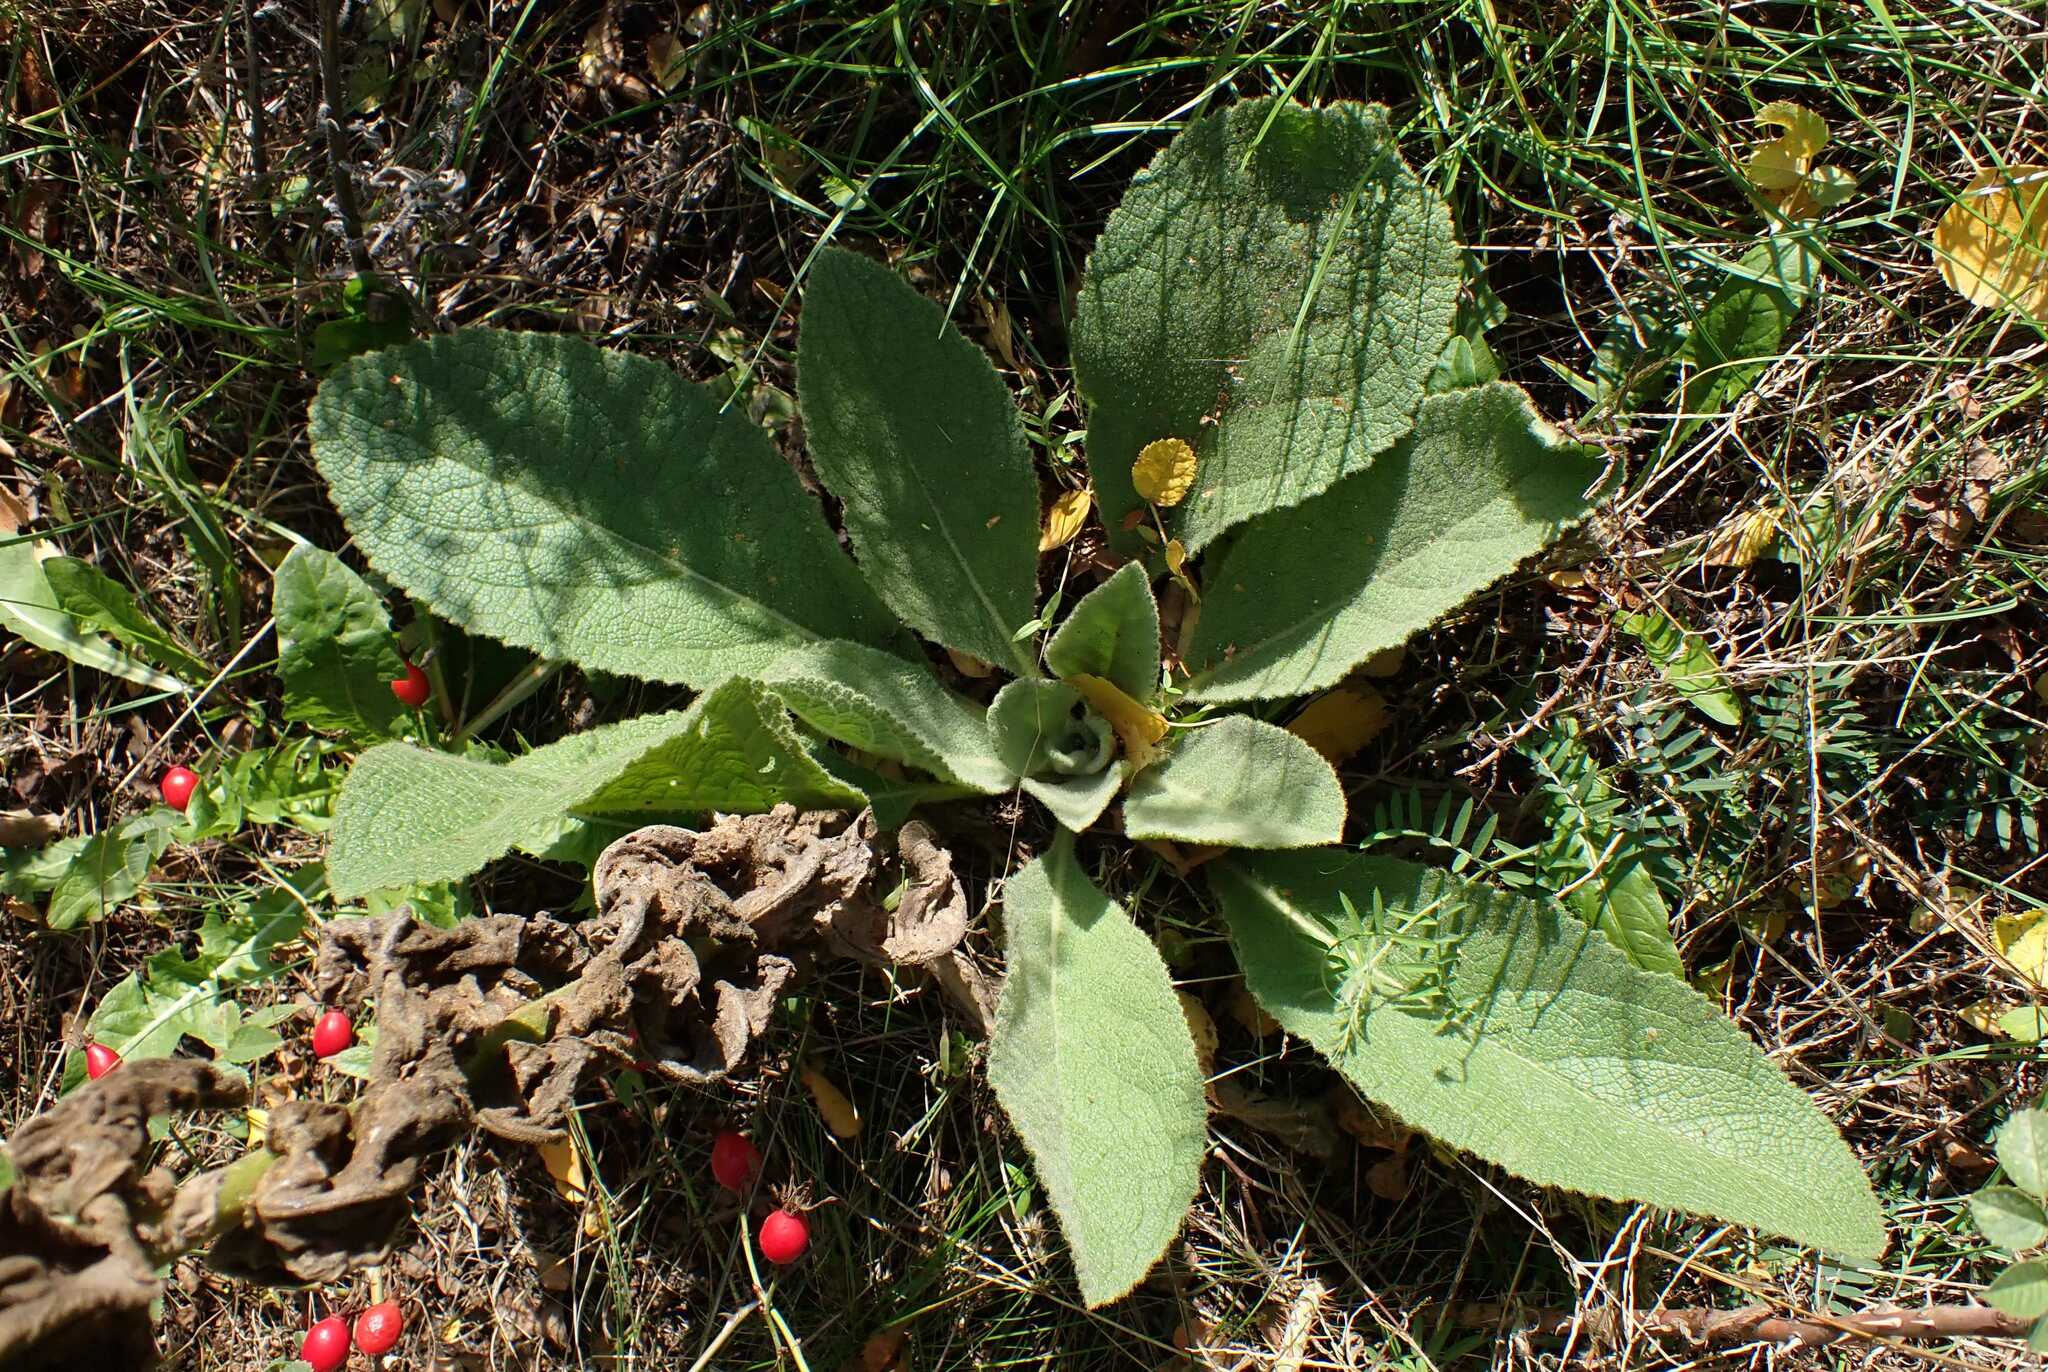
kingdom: Animalia
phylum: Arthropoda
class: Insecta
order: Hemiptera
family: Cicadellidae
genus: Micantulina
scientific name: Micantulina stigmatipennis
